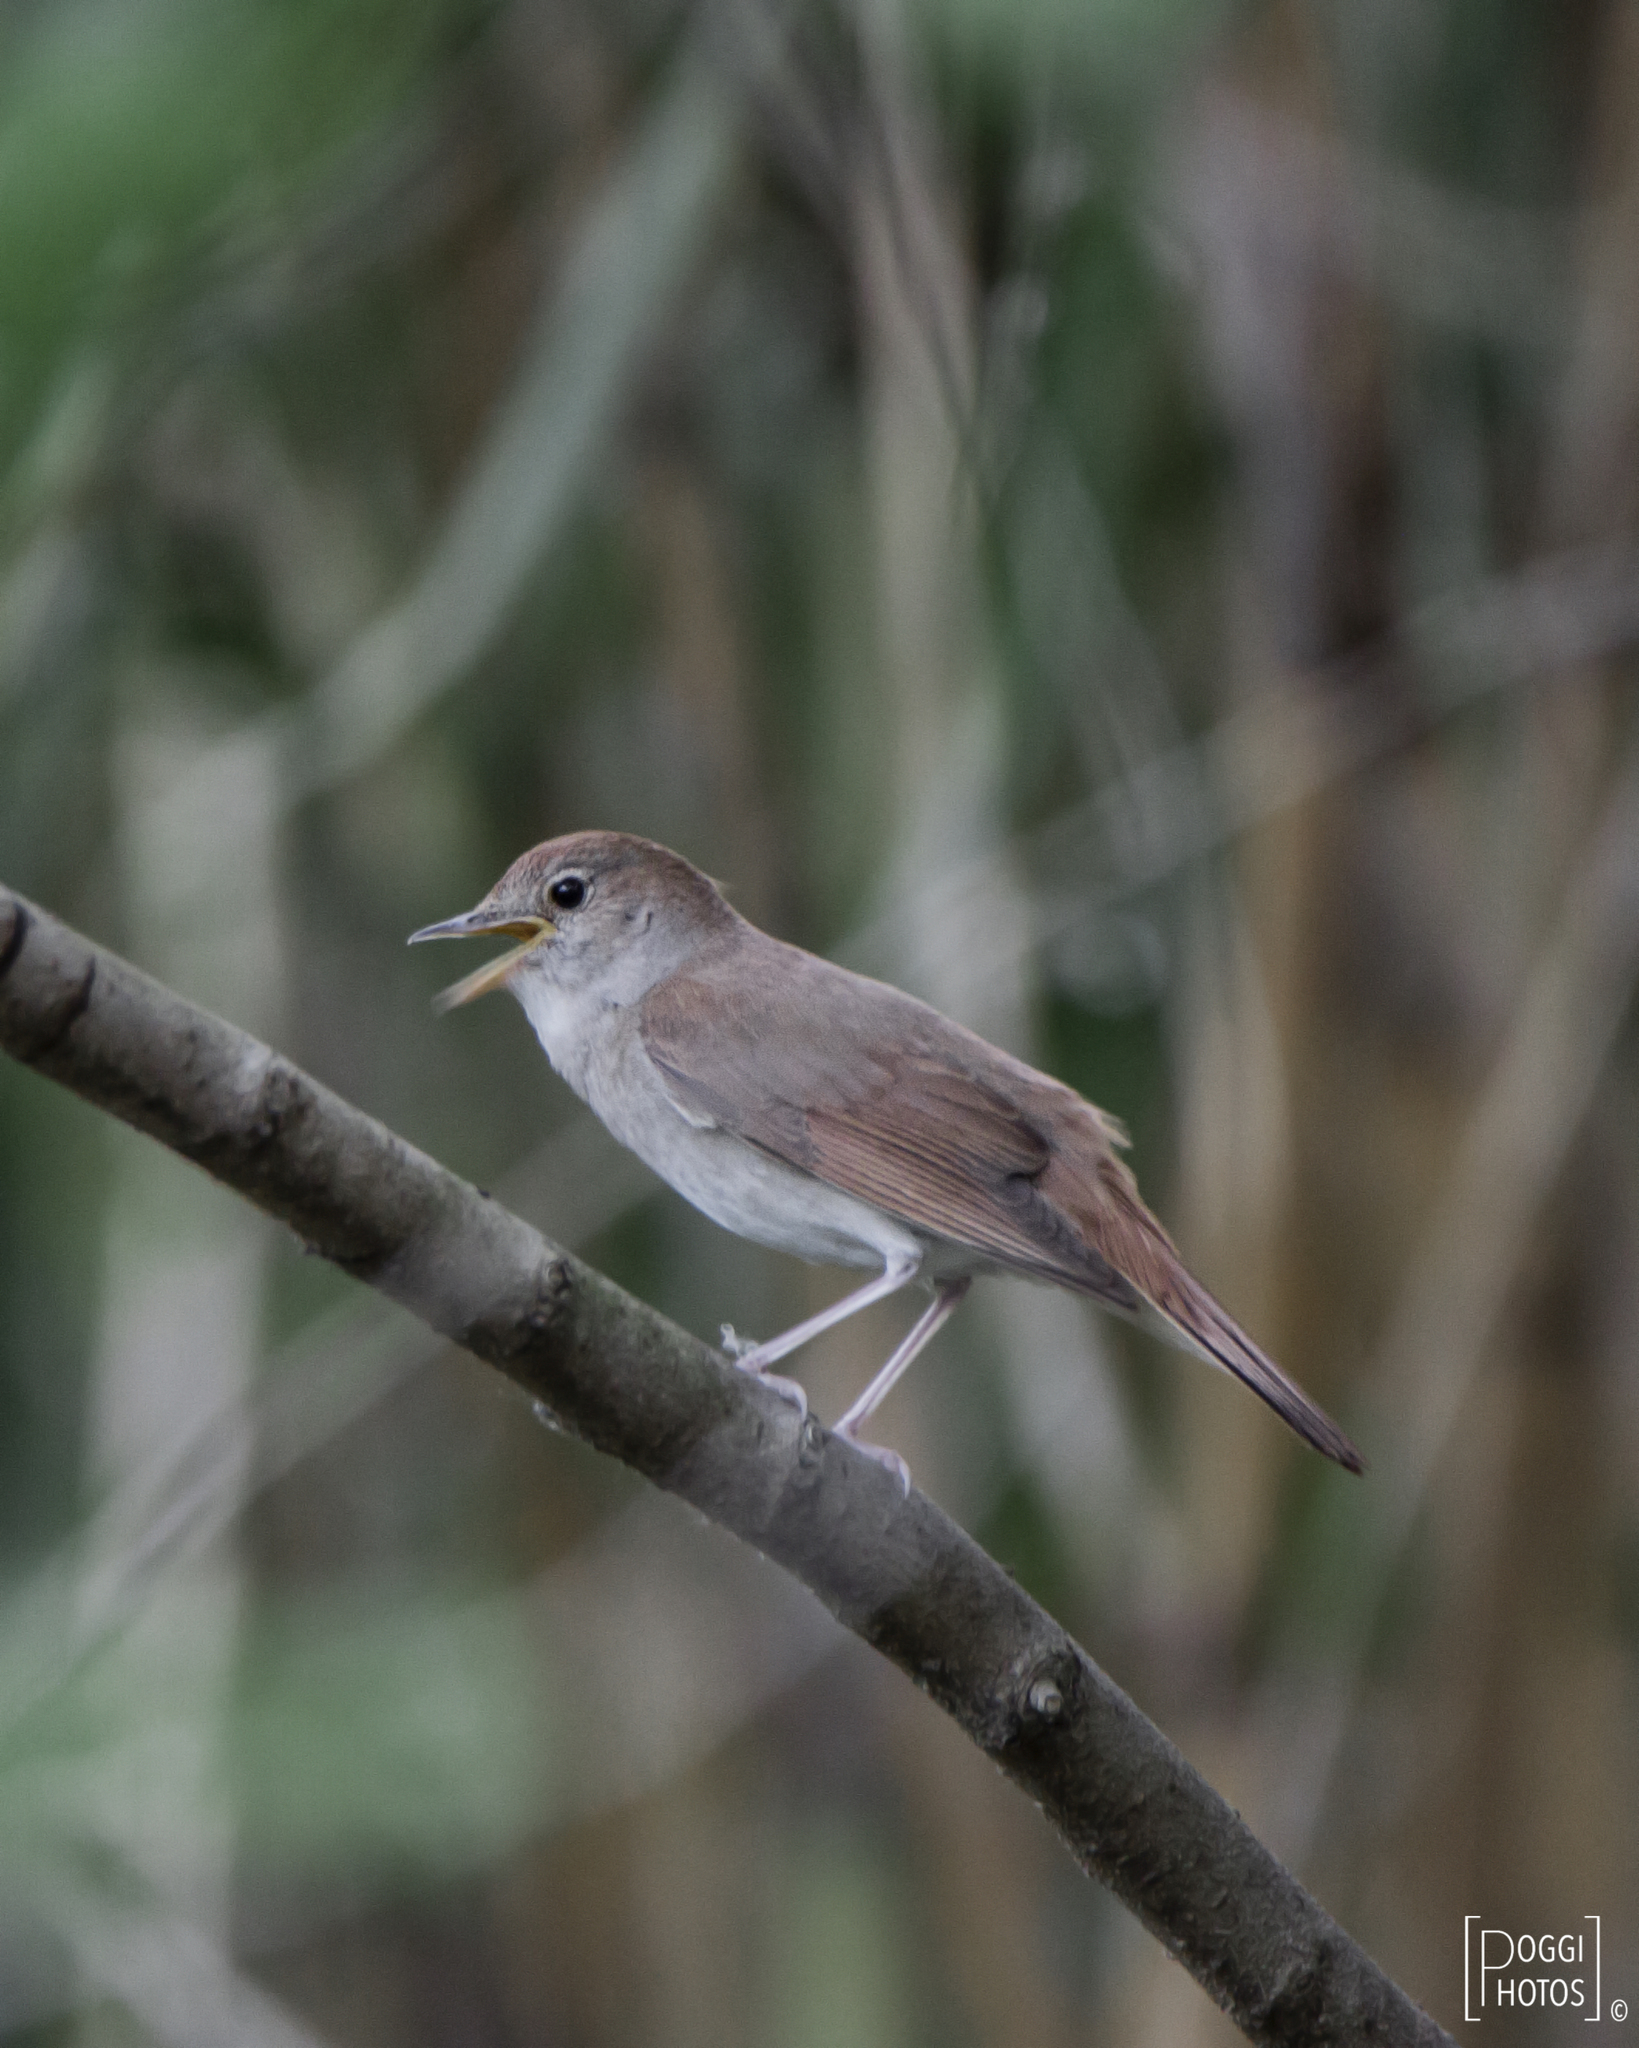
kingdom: Animalia
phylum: Chordata
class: Aves
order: Passeriformes
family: Muscicapidae
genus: Luscinia
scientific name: Luscinia megarhynchos
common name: Common nightingale
